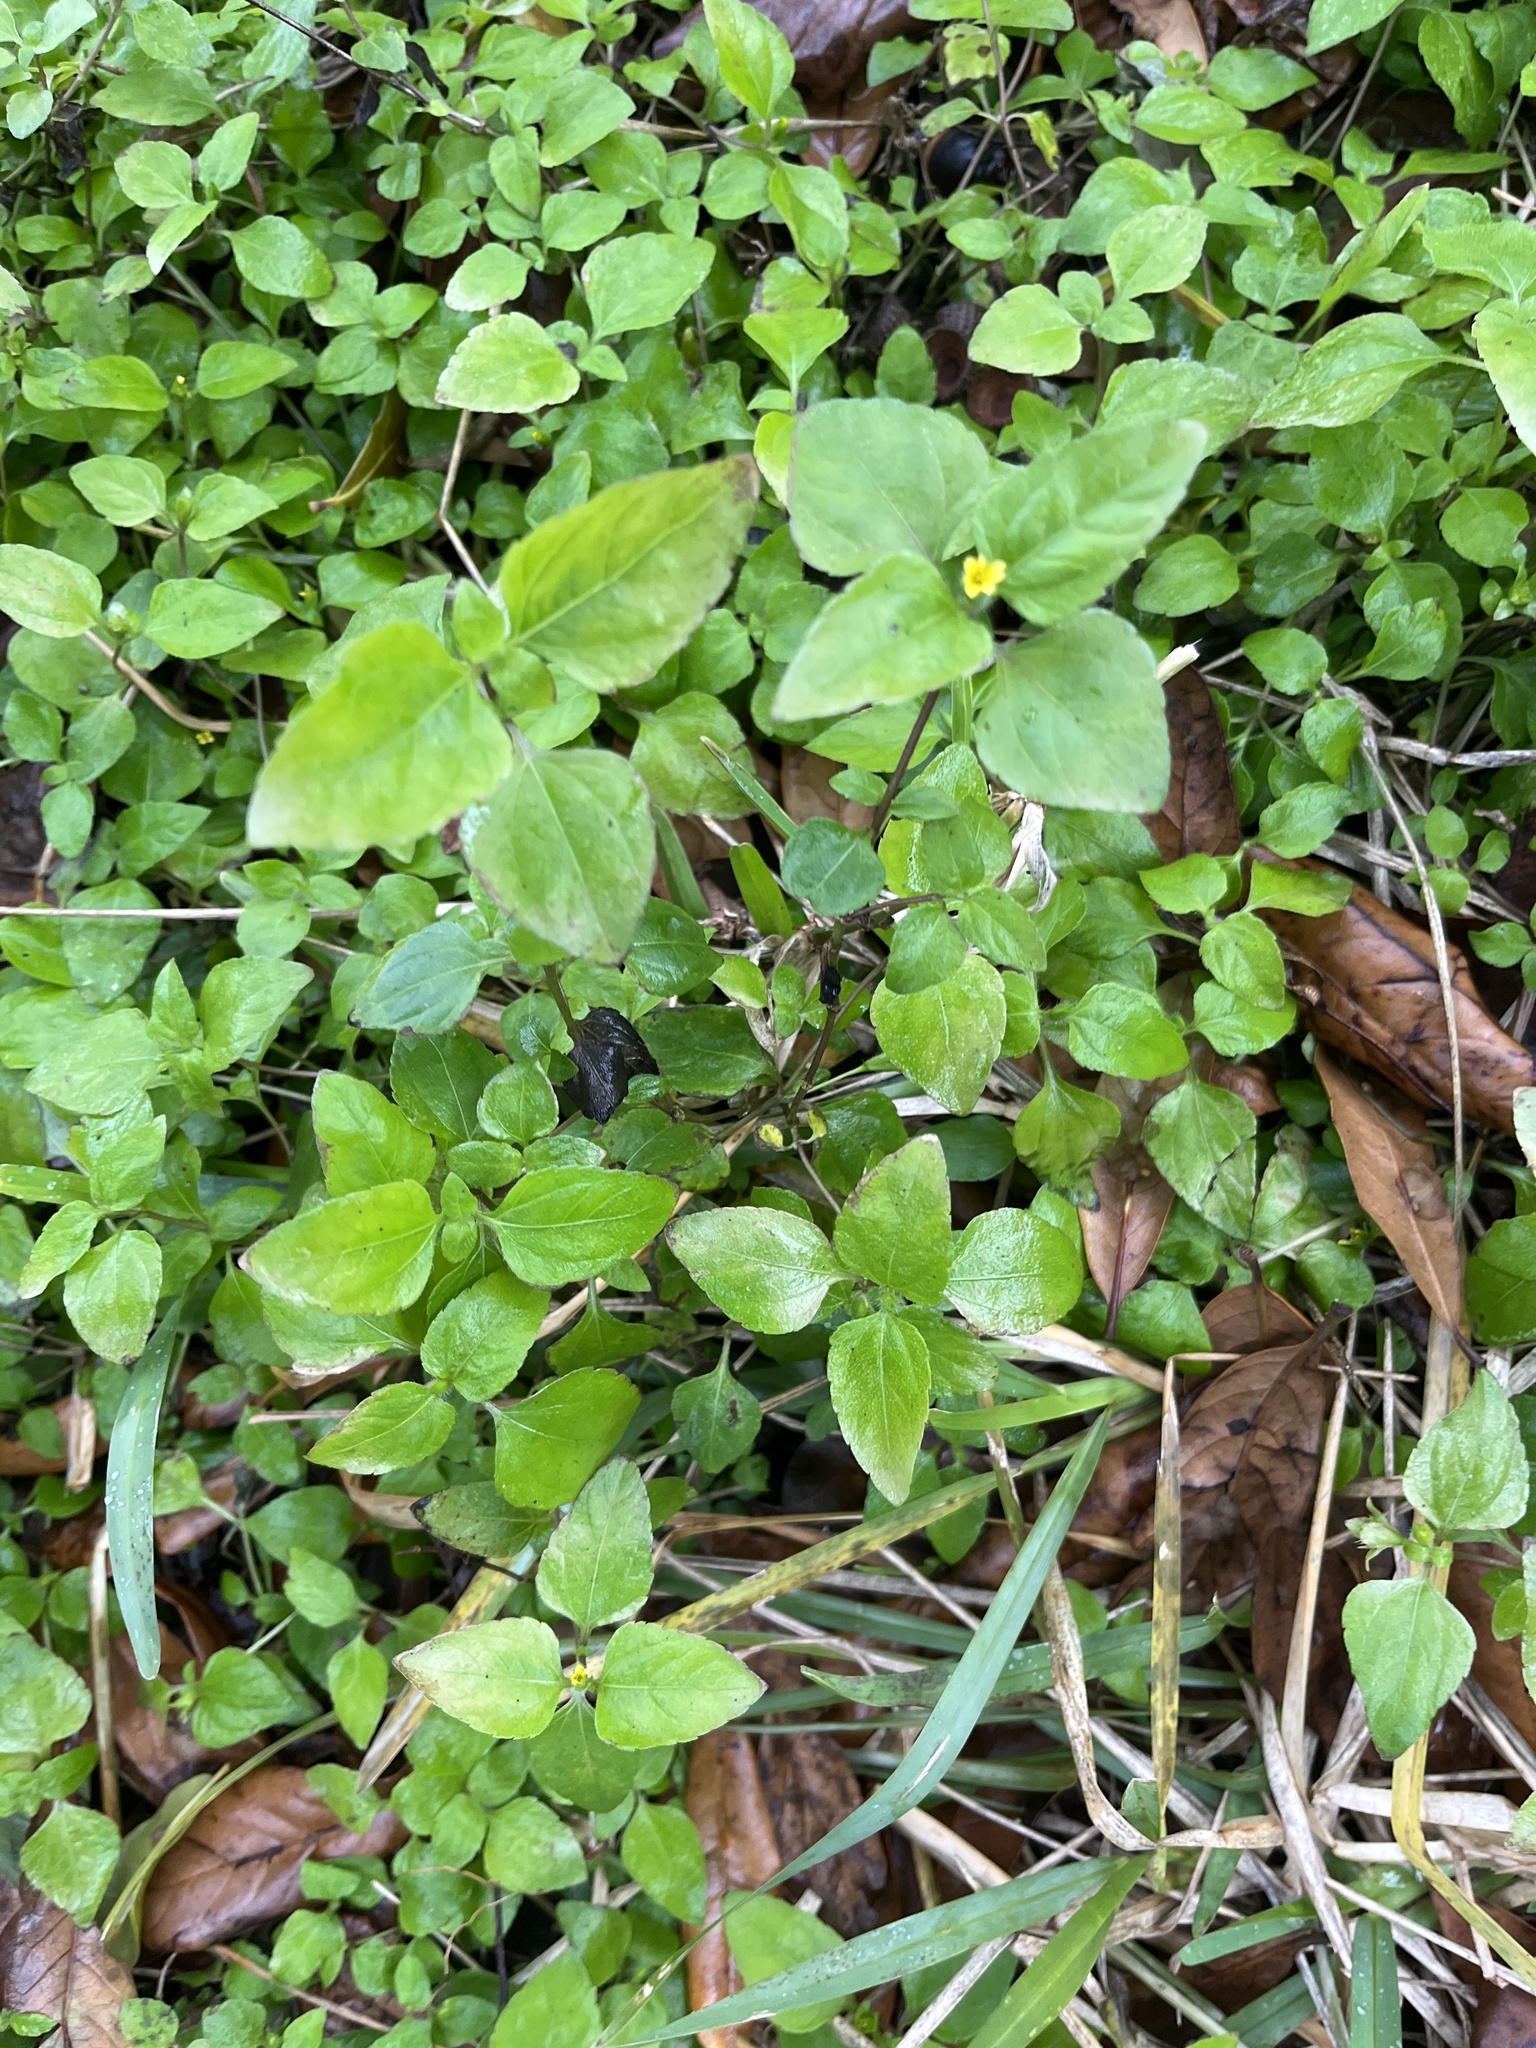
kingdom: Plantae
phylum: Tracheophyta
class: Magnoliopsida
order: Asterales
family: Asteraceae
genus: Calyptocarpus
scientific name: Calyptocarpus vialis
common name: Straggler daisy
